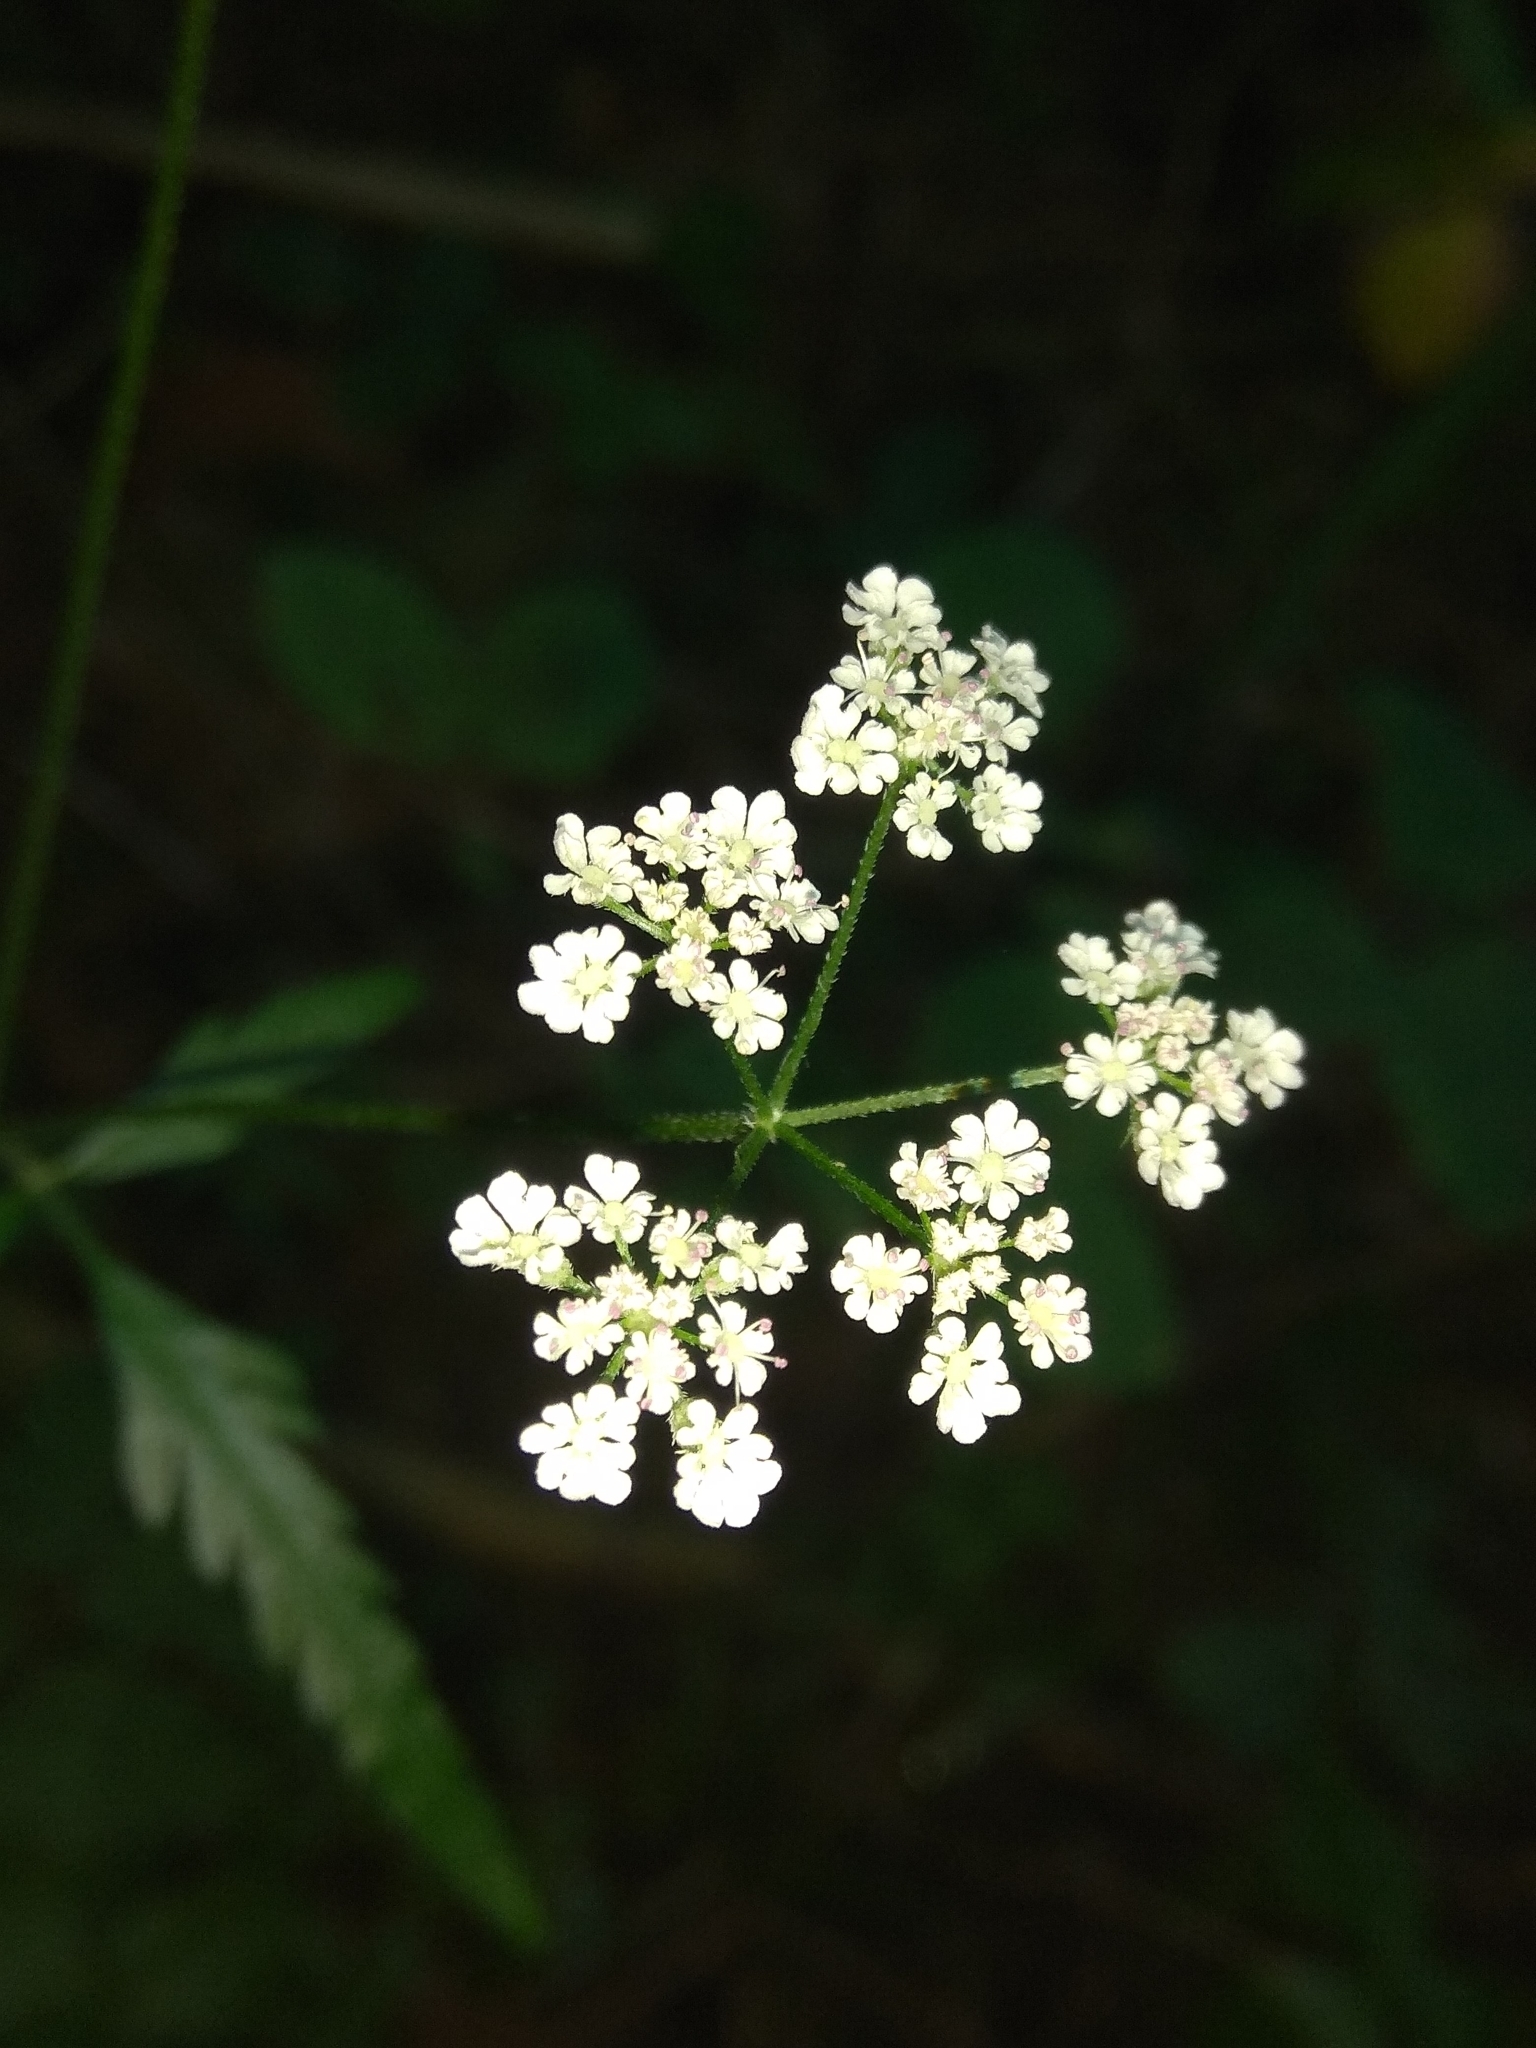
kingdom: Plantae
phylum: Tracheophyta
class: Magnoliopsida
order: Apiales
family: Apiaceae
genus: Torilis
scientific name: Torilis japonica
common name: Upright hedge-parsley
